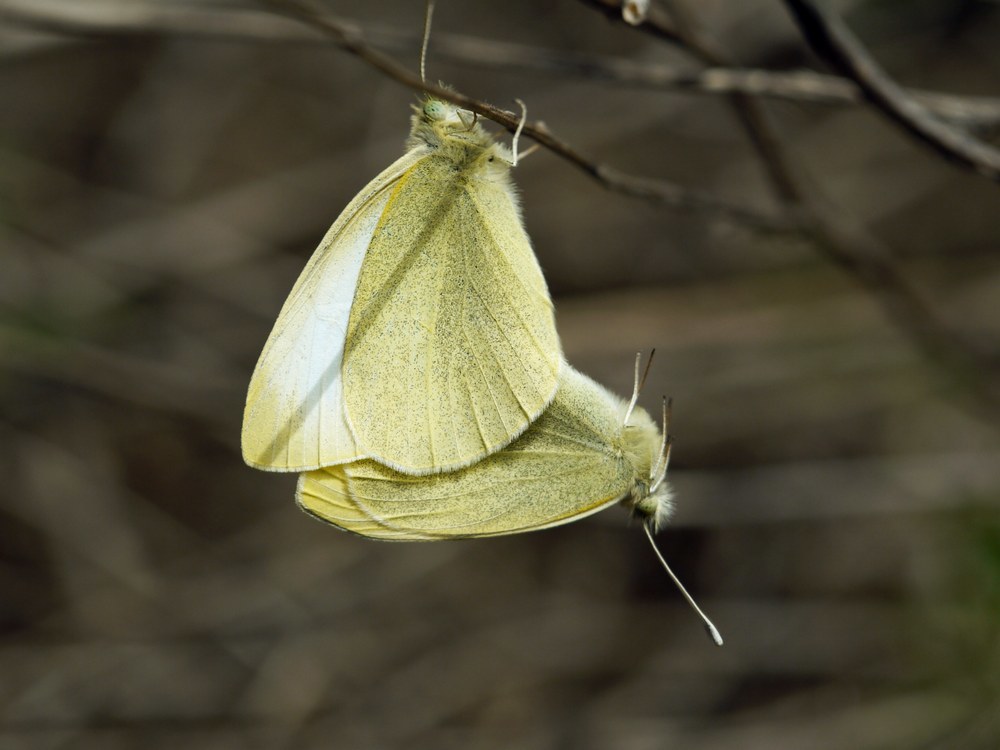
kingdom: Animalia
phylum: Arthropoda
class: Insecta
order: Lepidoptera
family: Pieridae
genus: Pieris
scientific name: Pieris rapae
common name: Small white
